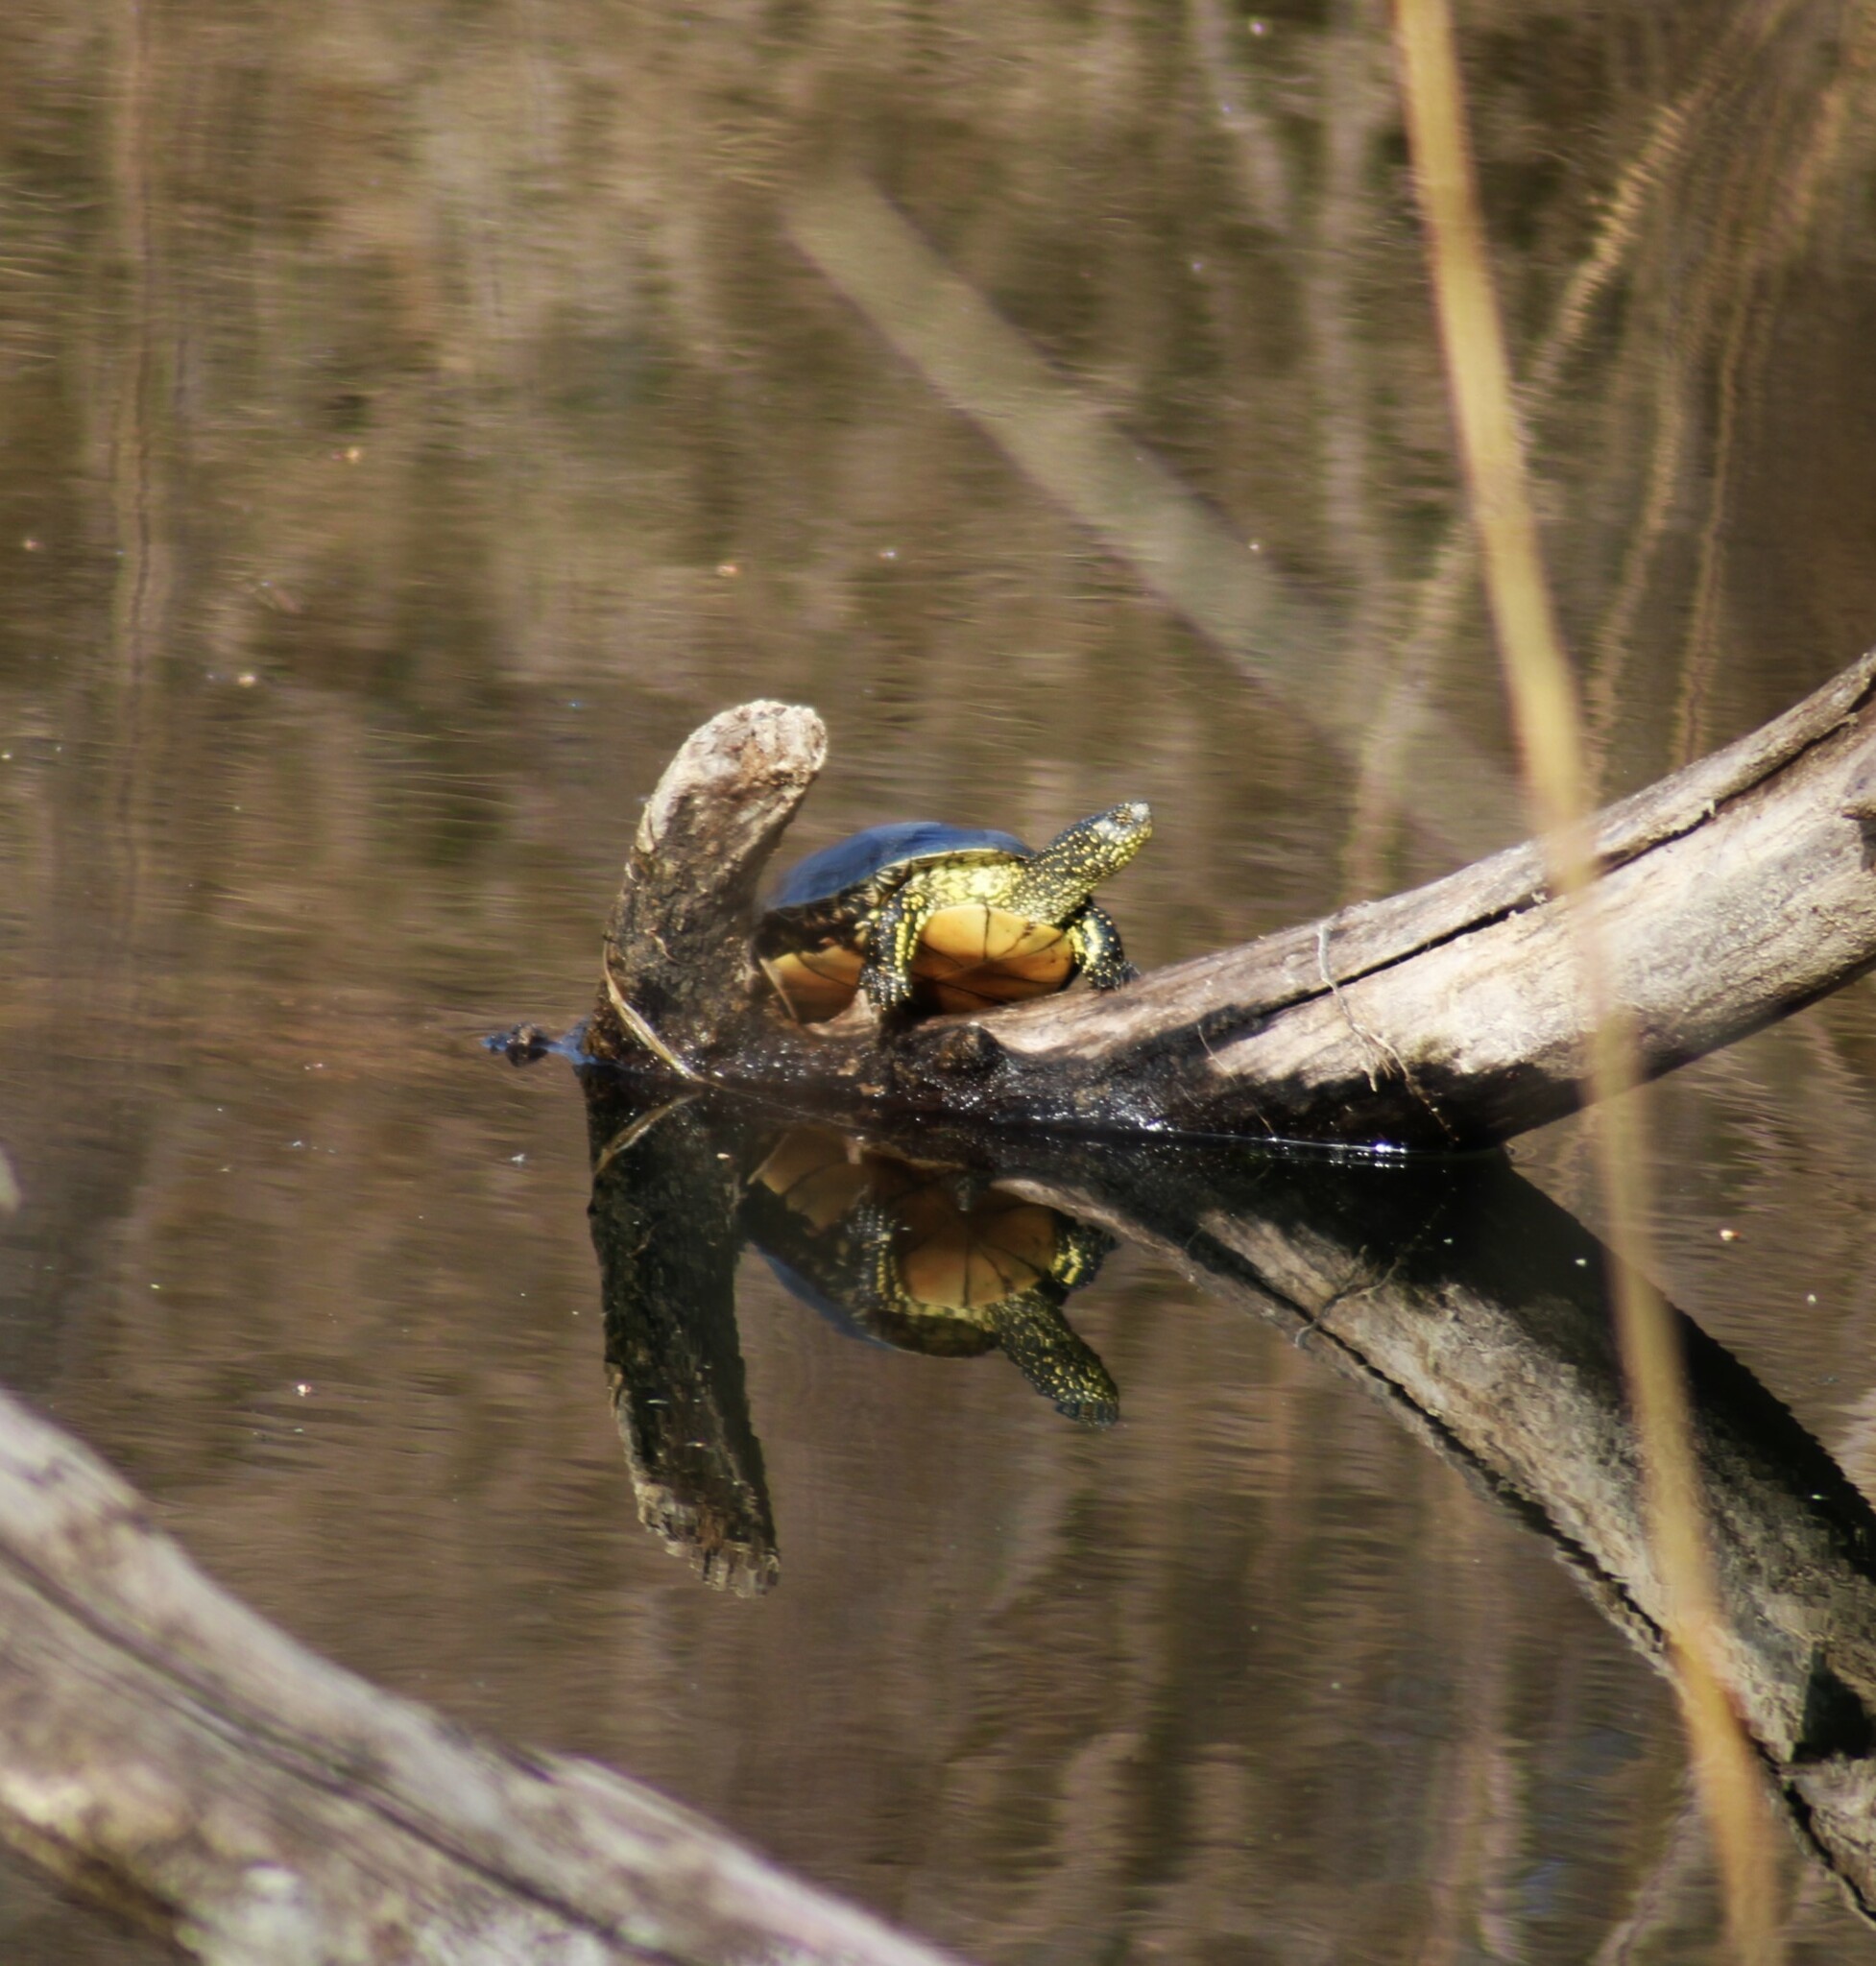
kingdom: Animalia
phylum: Chordata
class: Testudines
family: Emydidae
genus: Emys
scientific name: Emys orbicularis
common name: European pond turtle
